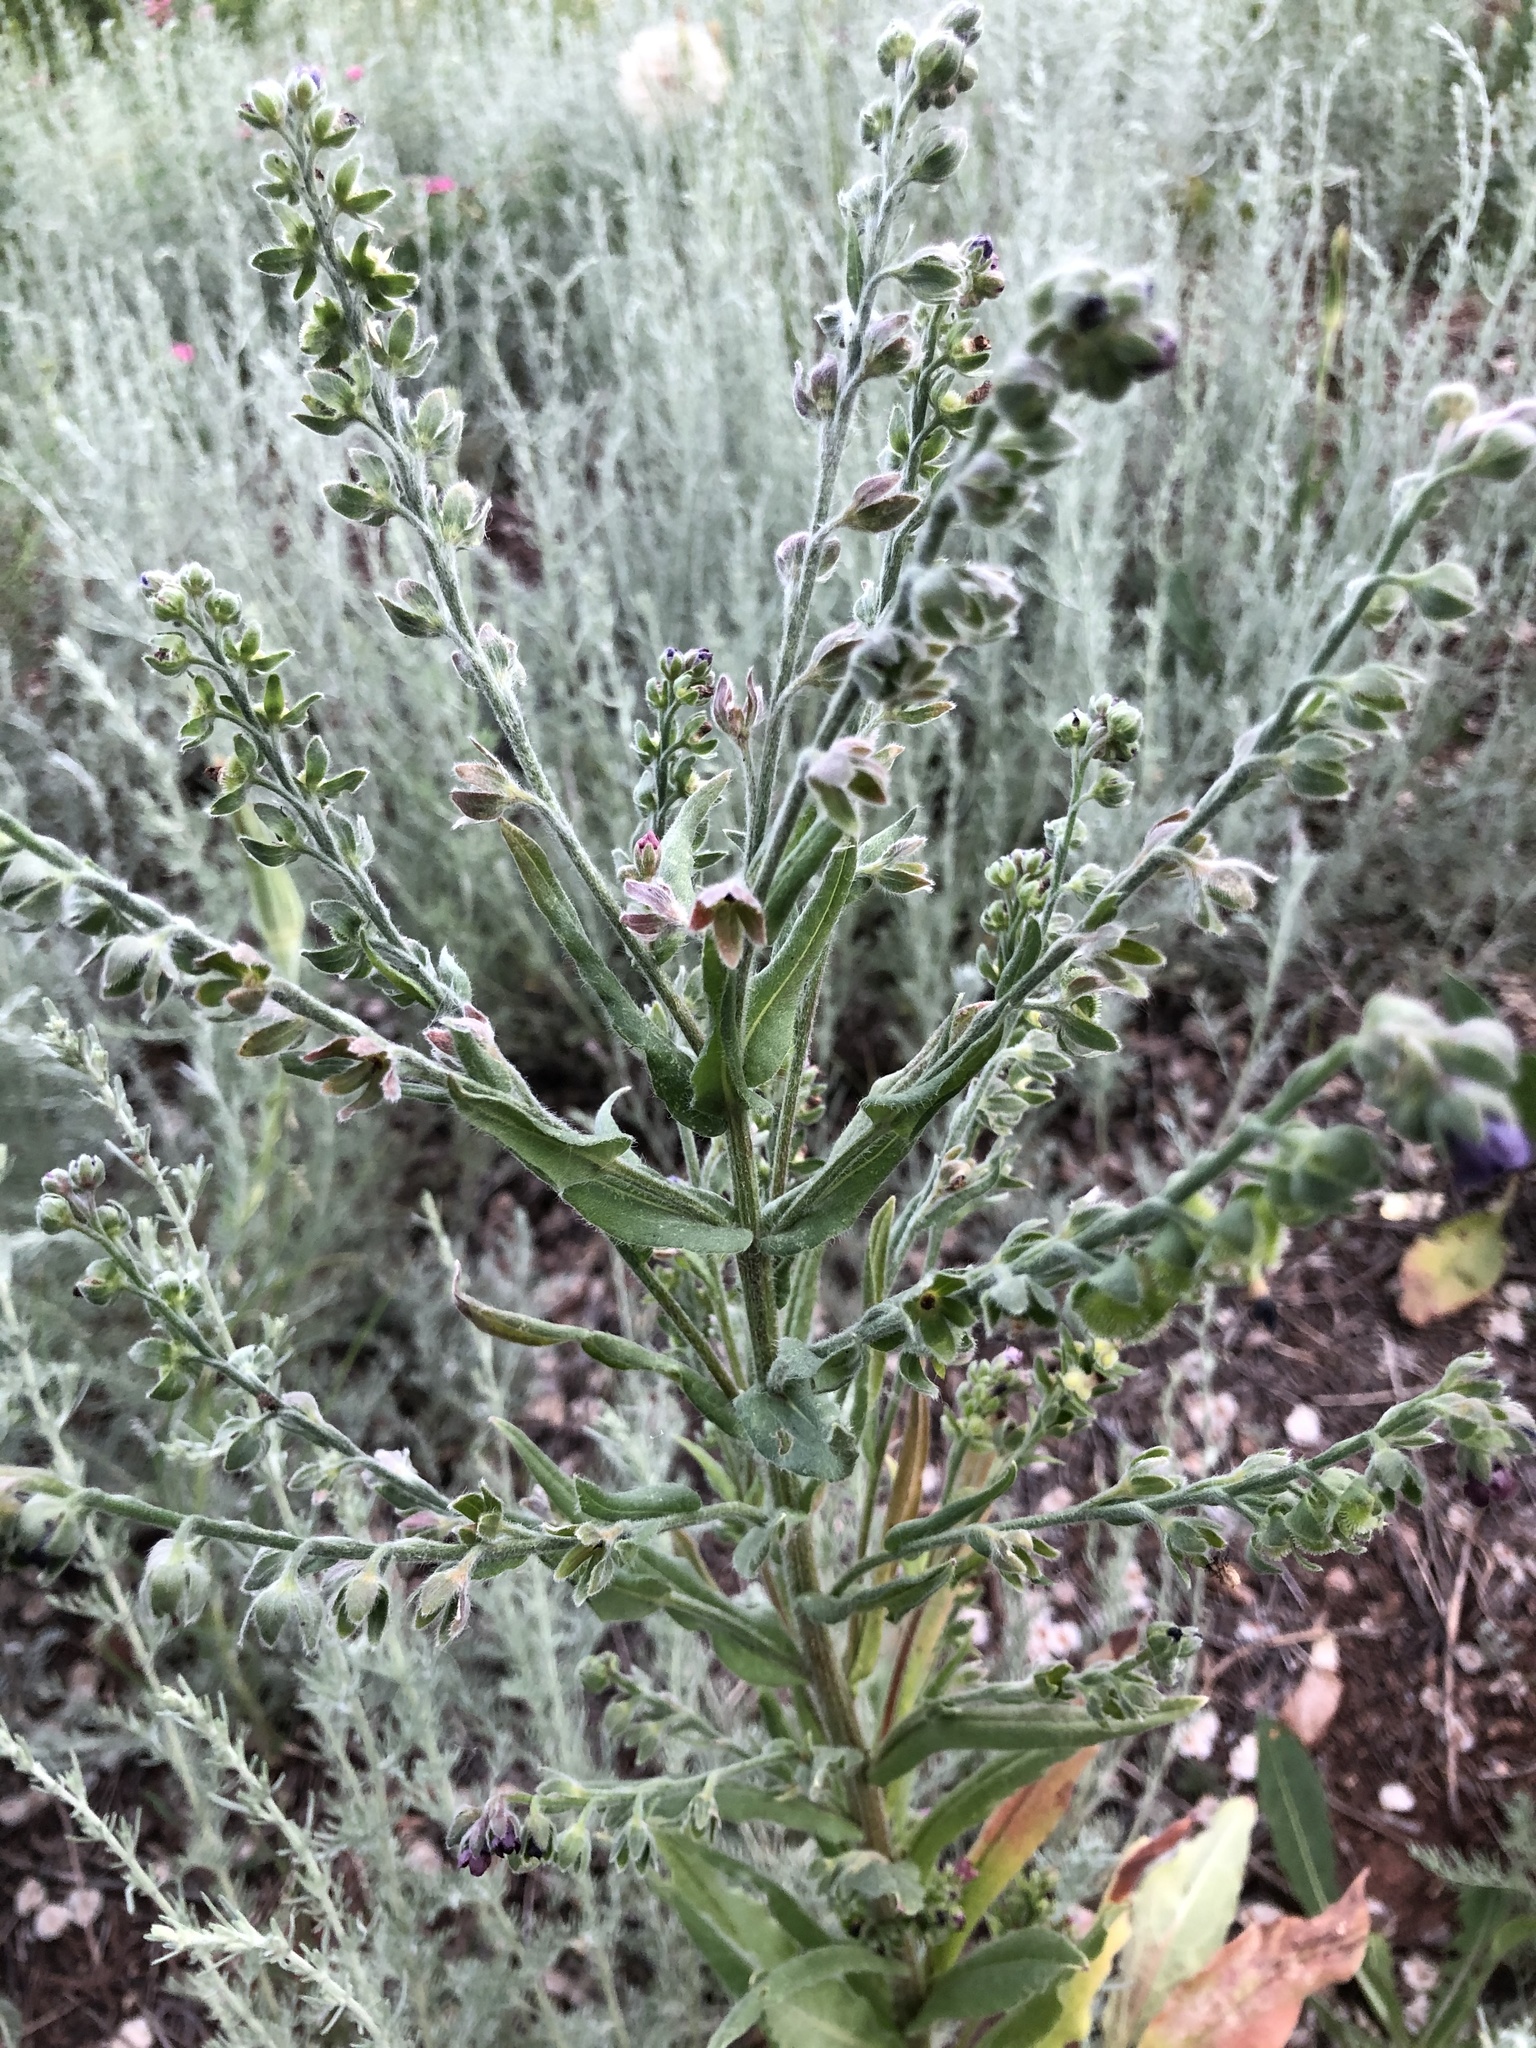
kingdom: Plantae
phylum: Tracheophyta
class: Magnoliopsida
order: Boraginales
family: Boraginaceae
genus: Cynoglossum
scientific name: Cynoglossum officinale
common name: Hound's-tongue
